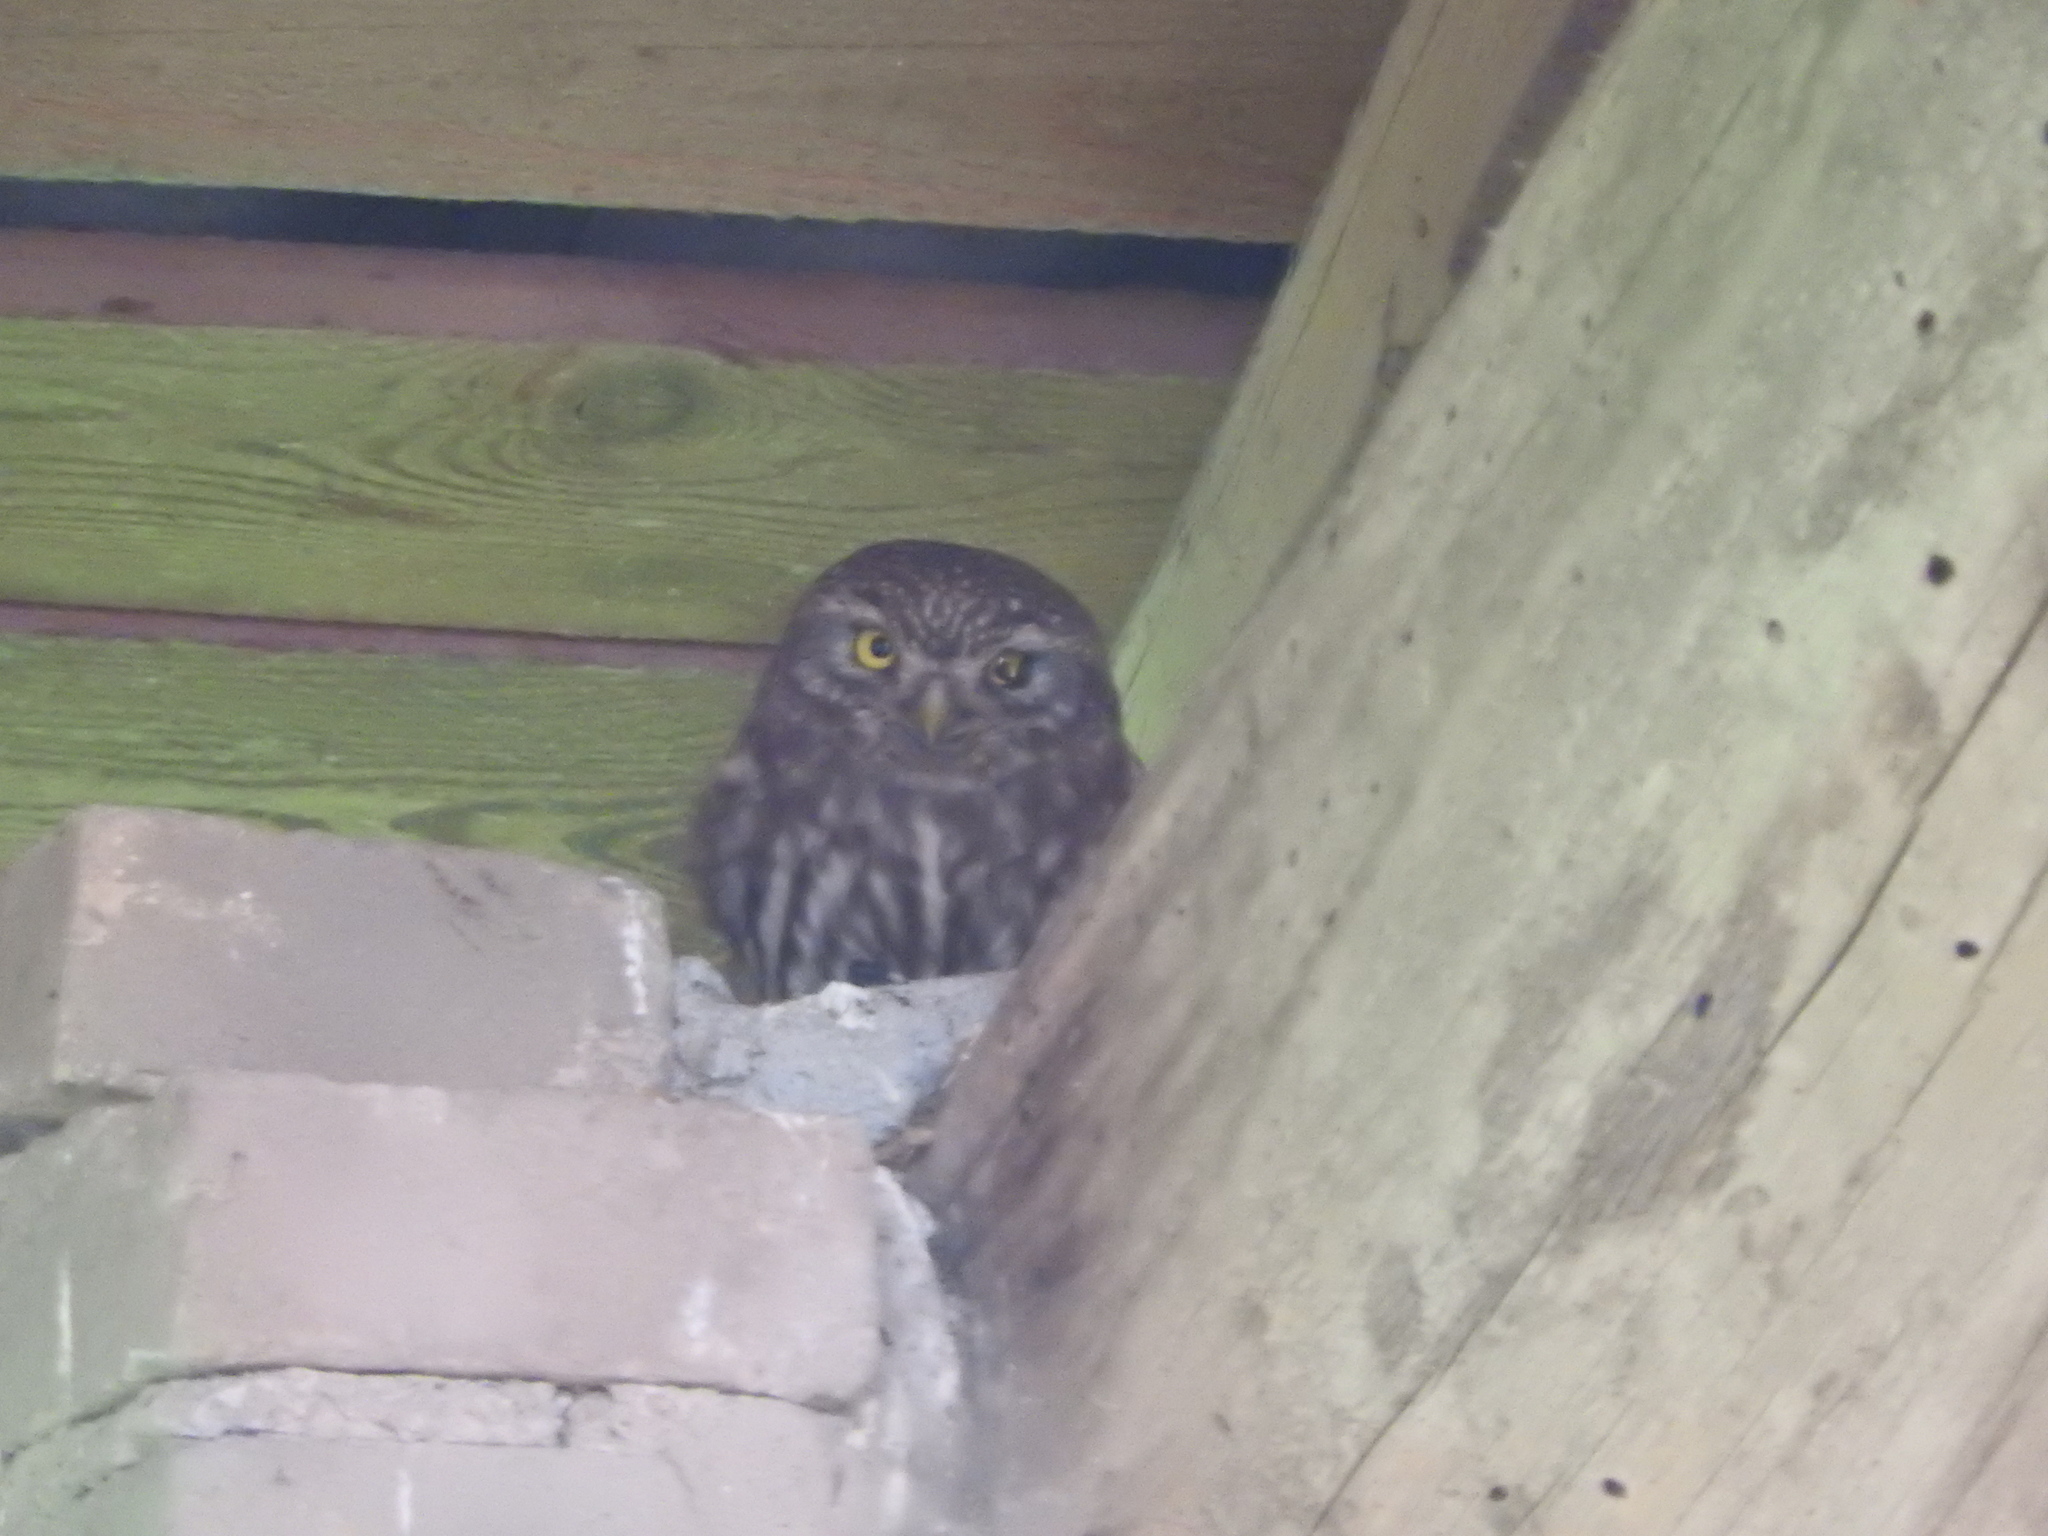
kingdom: Animalia
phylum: Chordata
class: Aves
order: Strigiformes
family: Strigidae
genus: Athene
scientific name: Athene noctua
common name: Little owl
